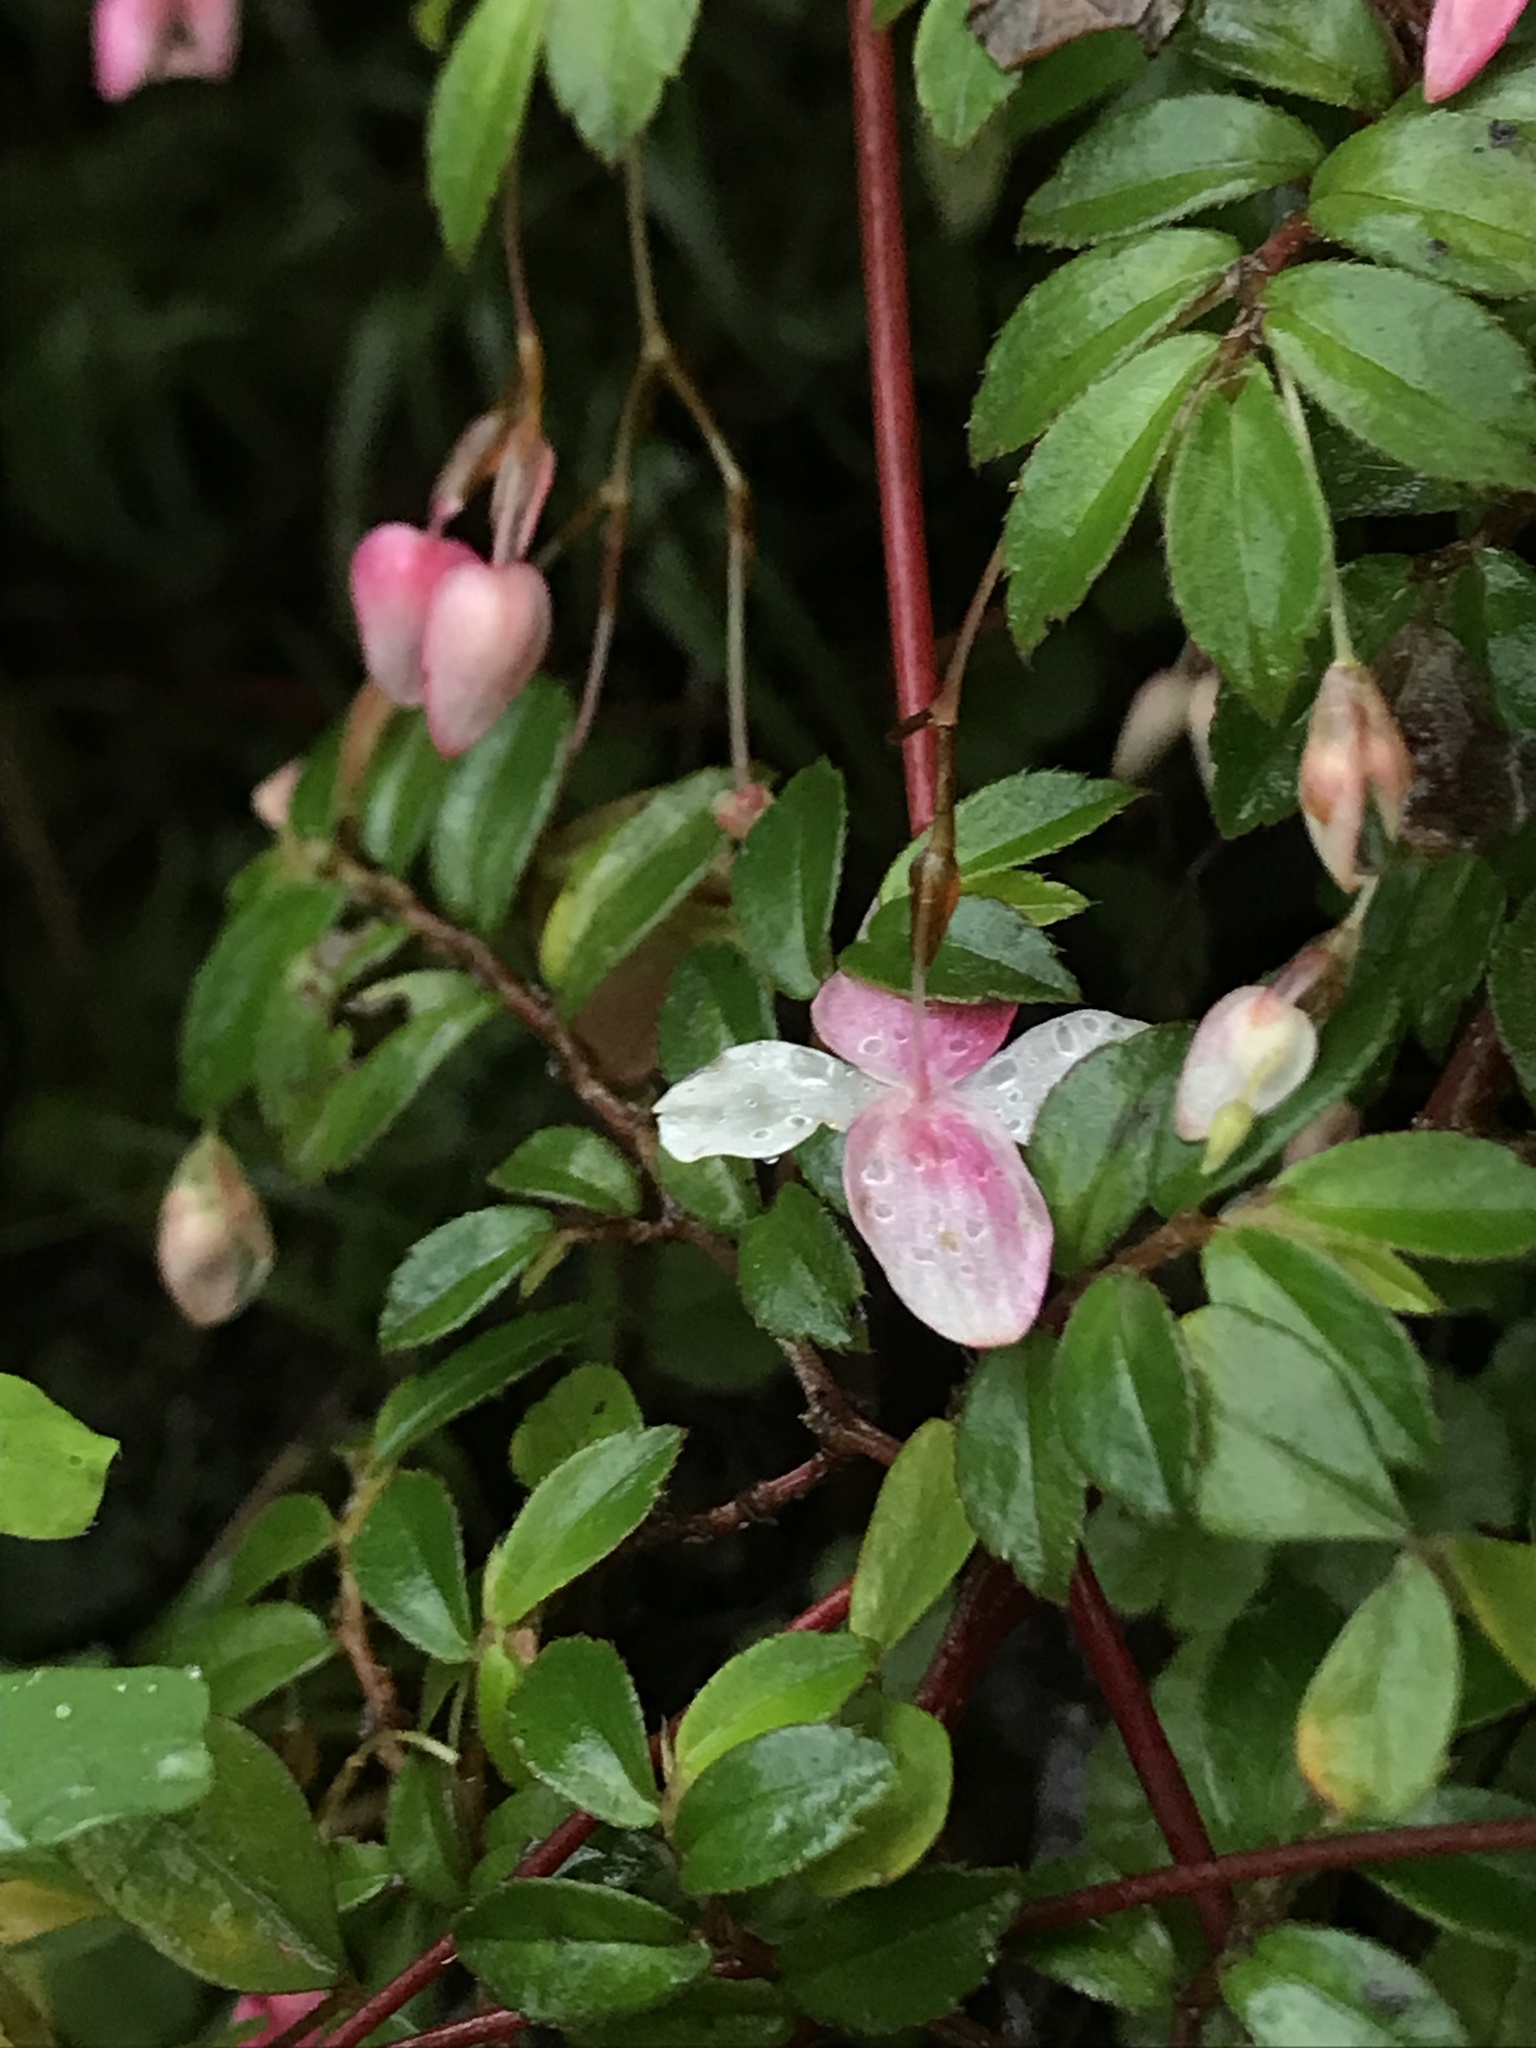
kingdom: Plantae
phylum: Tracheophyta
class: Magnoliopsida
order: Cucurbitales
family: Begoniaceae
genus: Begonia
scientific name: Begonia foliosa
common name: Fern begonia
